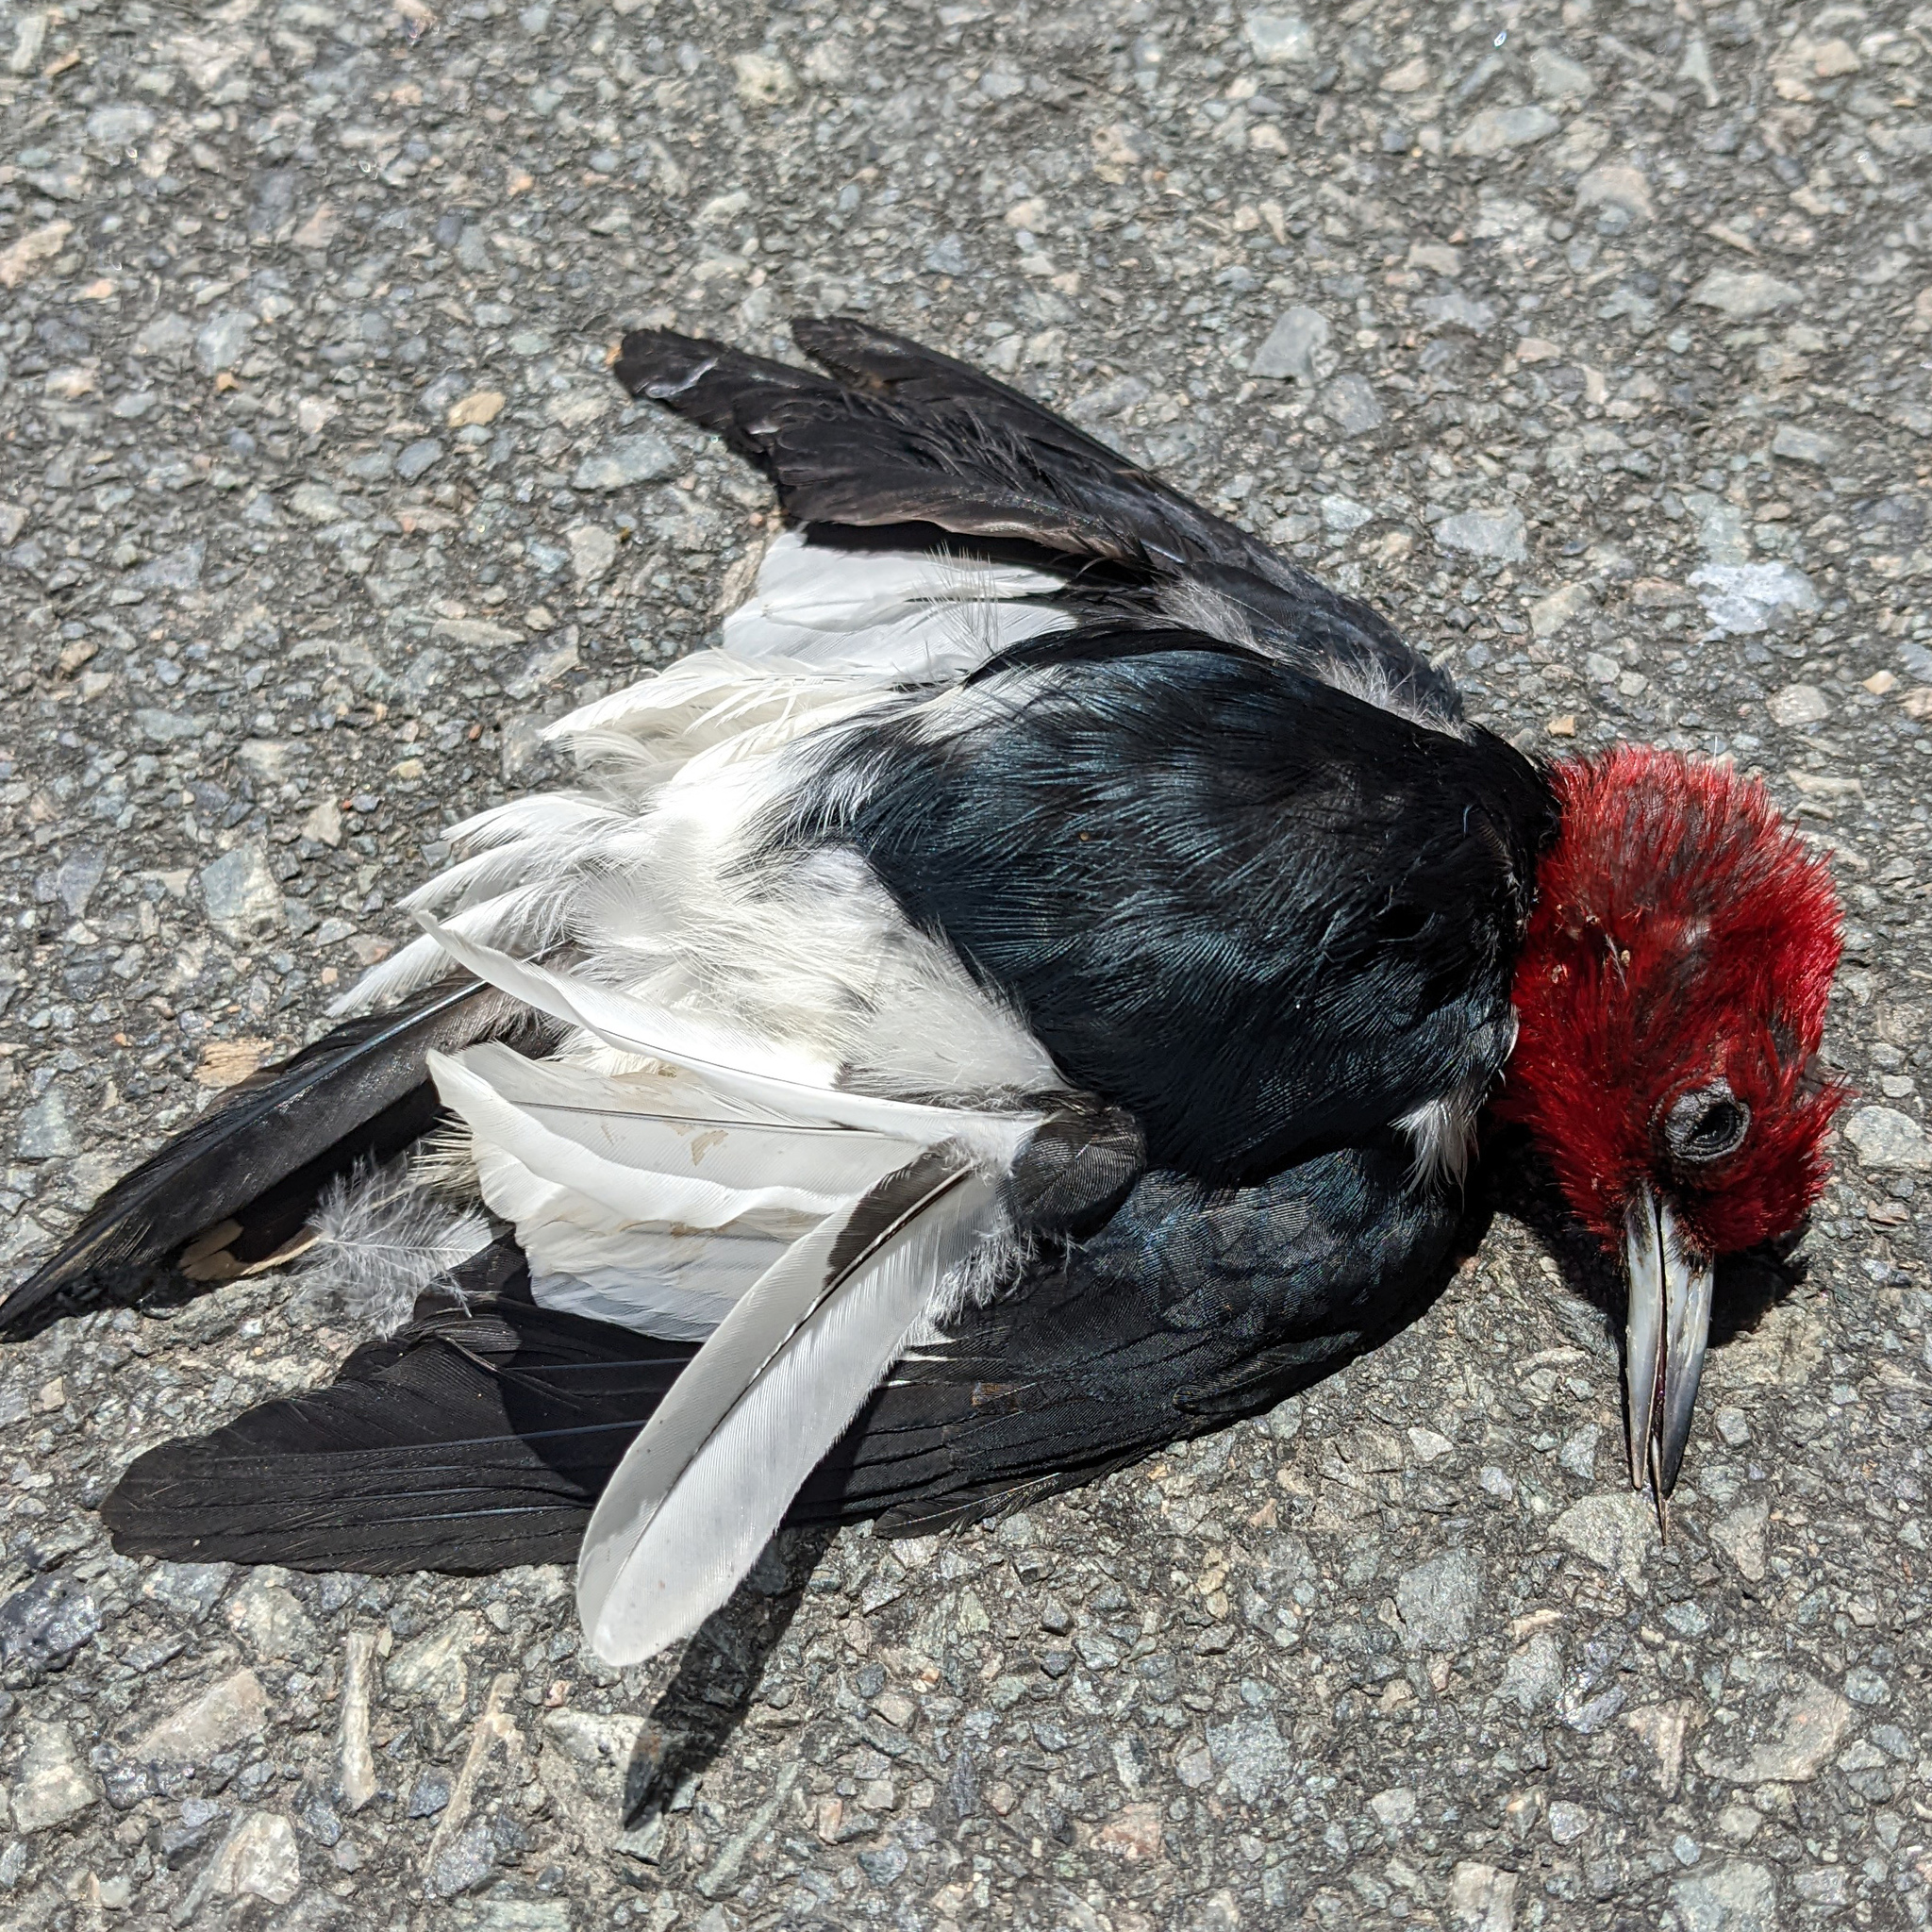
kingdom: Animalia
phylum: Chordata
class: Aves
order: Piciformes
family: Picidae
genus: Melanerpes
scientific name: Melanerpes erythrocephalus
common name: Red-headed woodpecker
